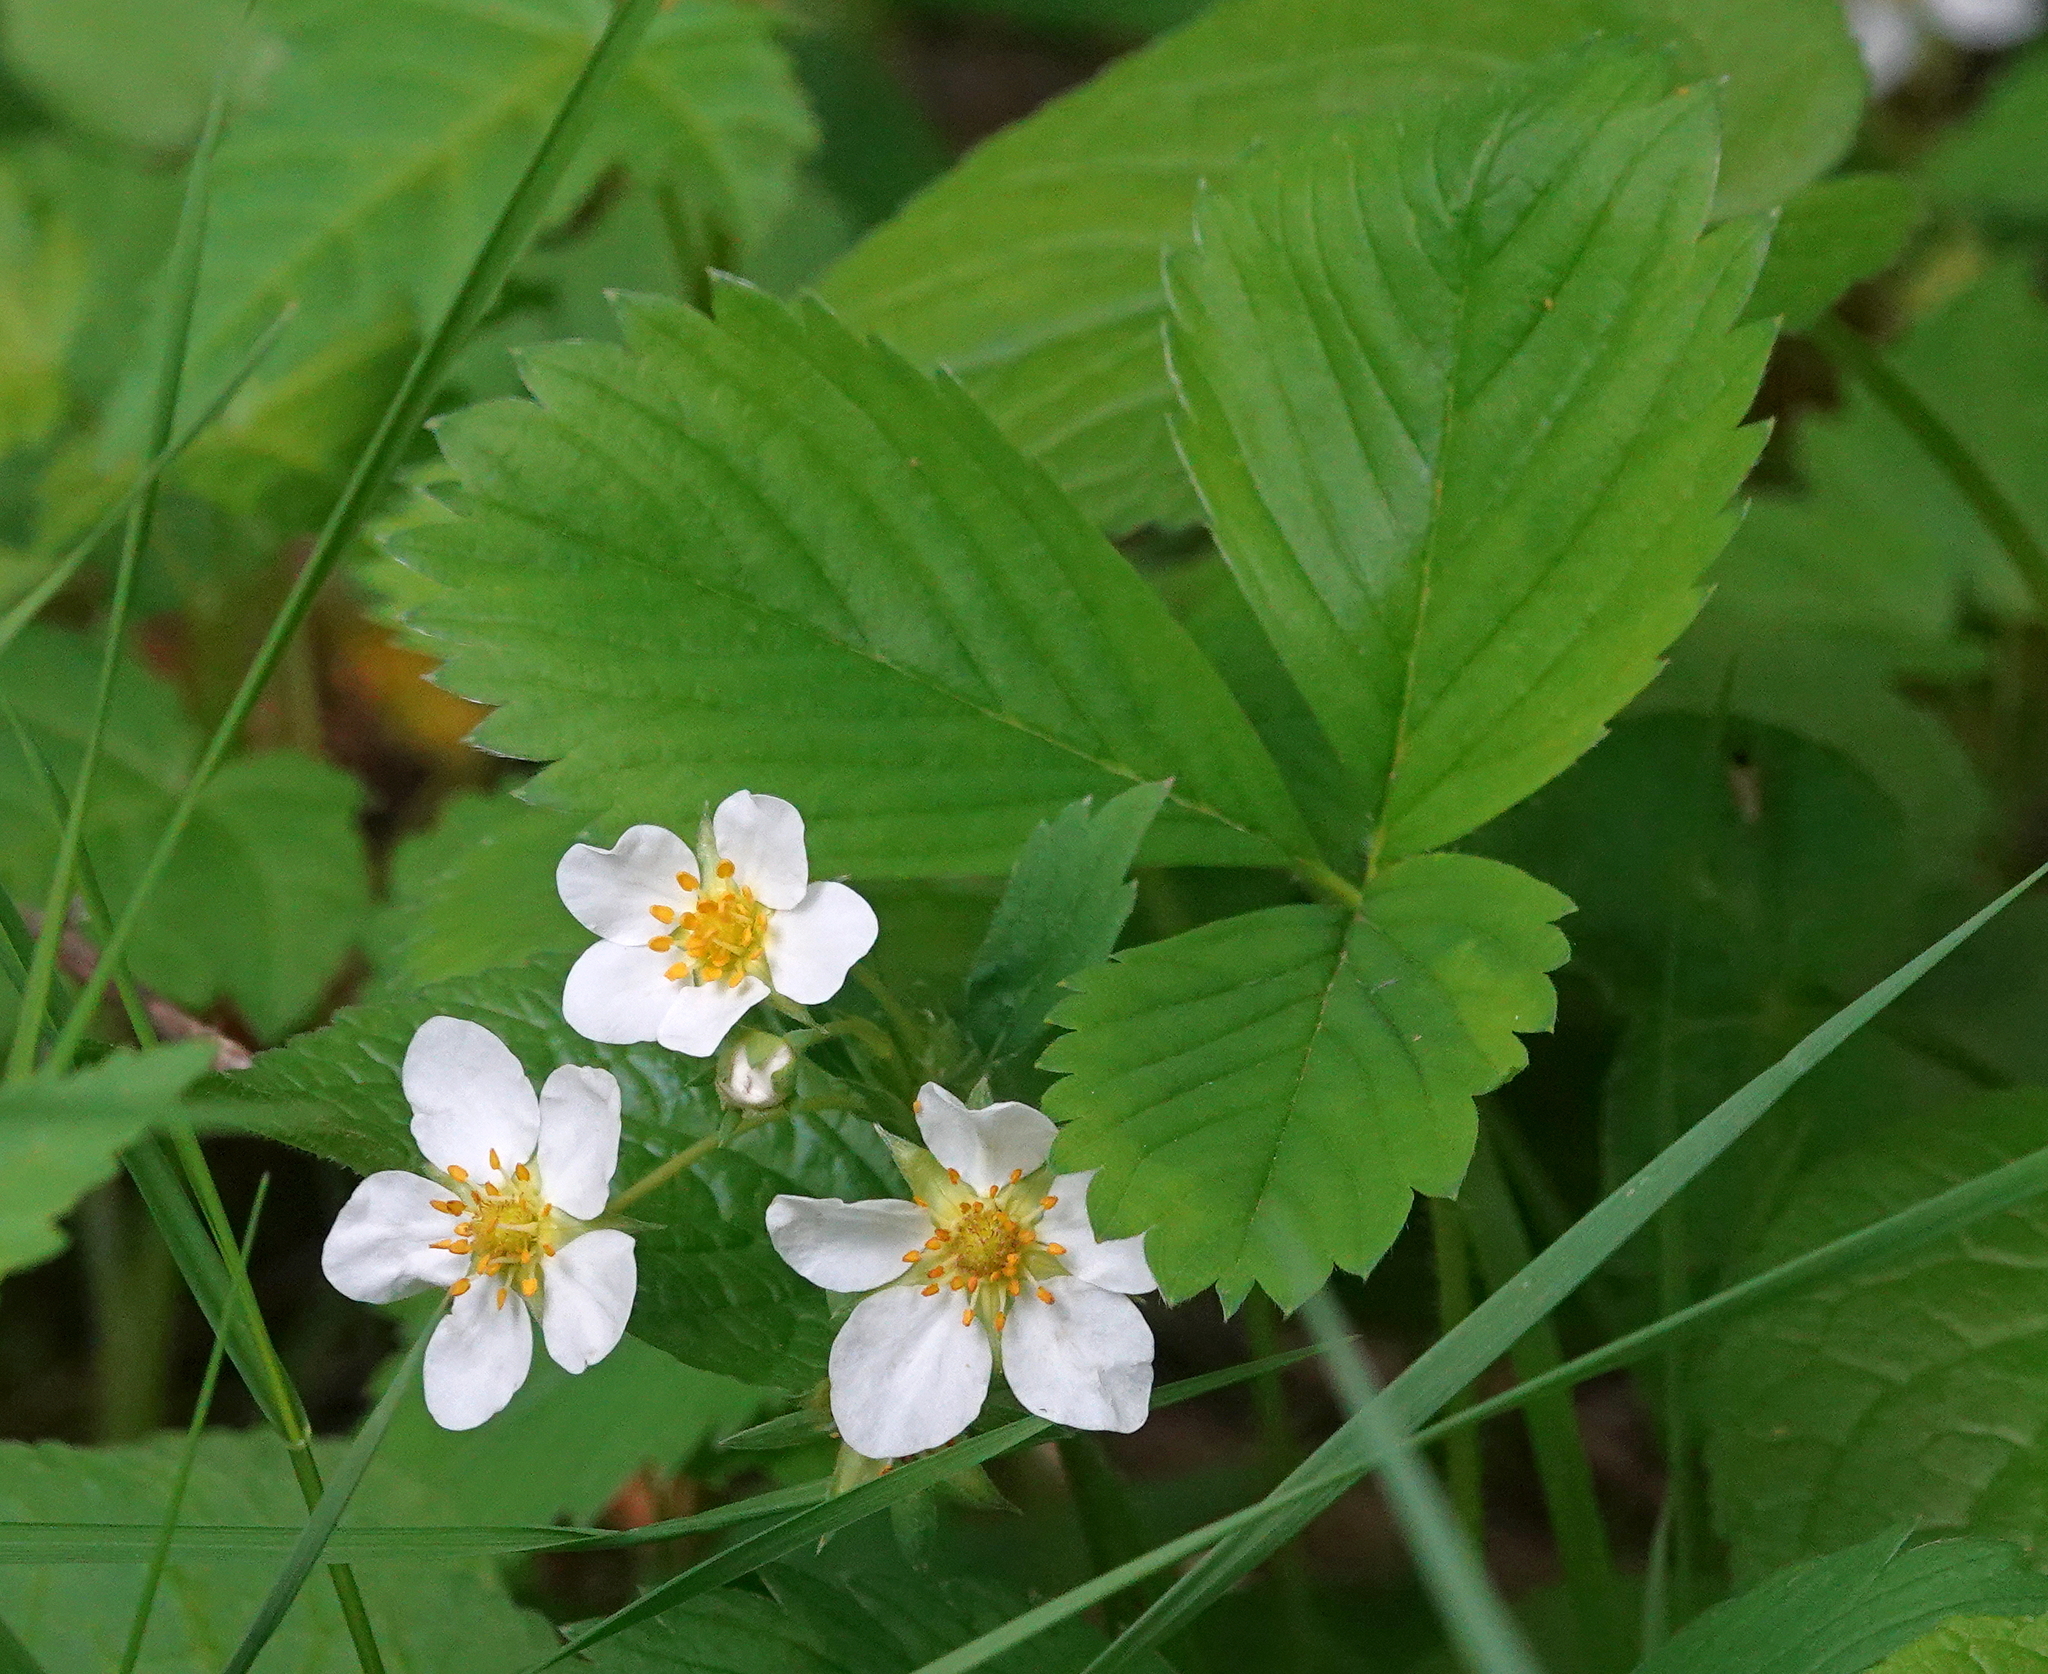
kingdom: Plantae
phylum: Tracheophyta
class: Magnoliopsida
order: Rosales
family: Rosaceae
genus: Fragaria
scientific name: Fragaria virginiana
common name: Thickleaved wild strawberry
